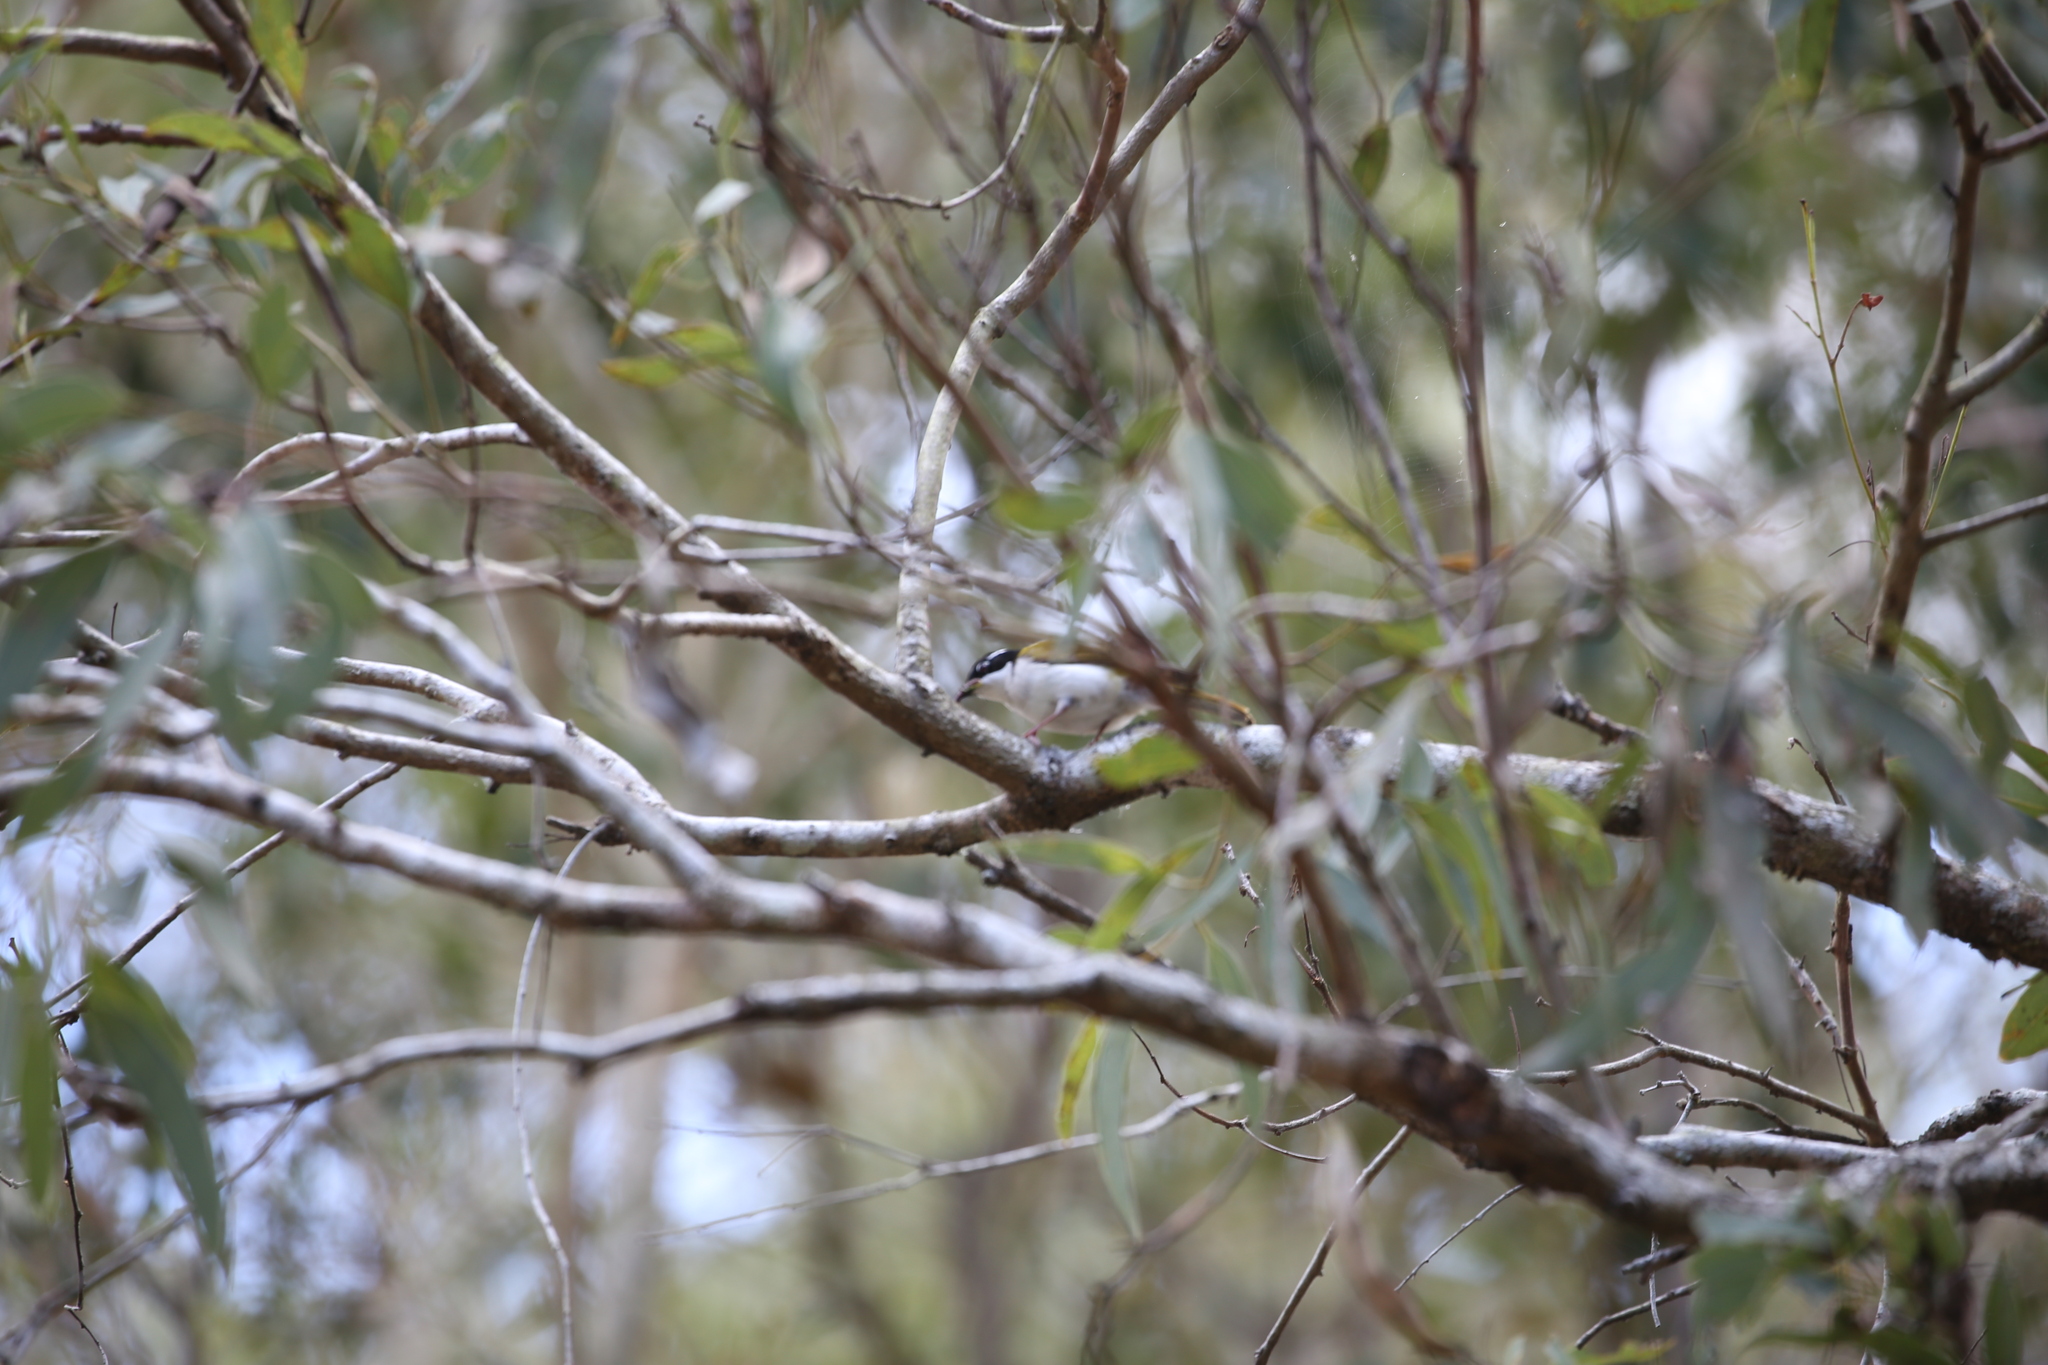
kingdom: Animalia
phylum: Chordata
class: Aves
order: Passeriformes
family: Meliphagidae
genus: Melithreptus
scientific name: Melithreptus albogularis
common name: White-throated honeyeater
